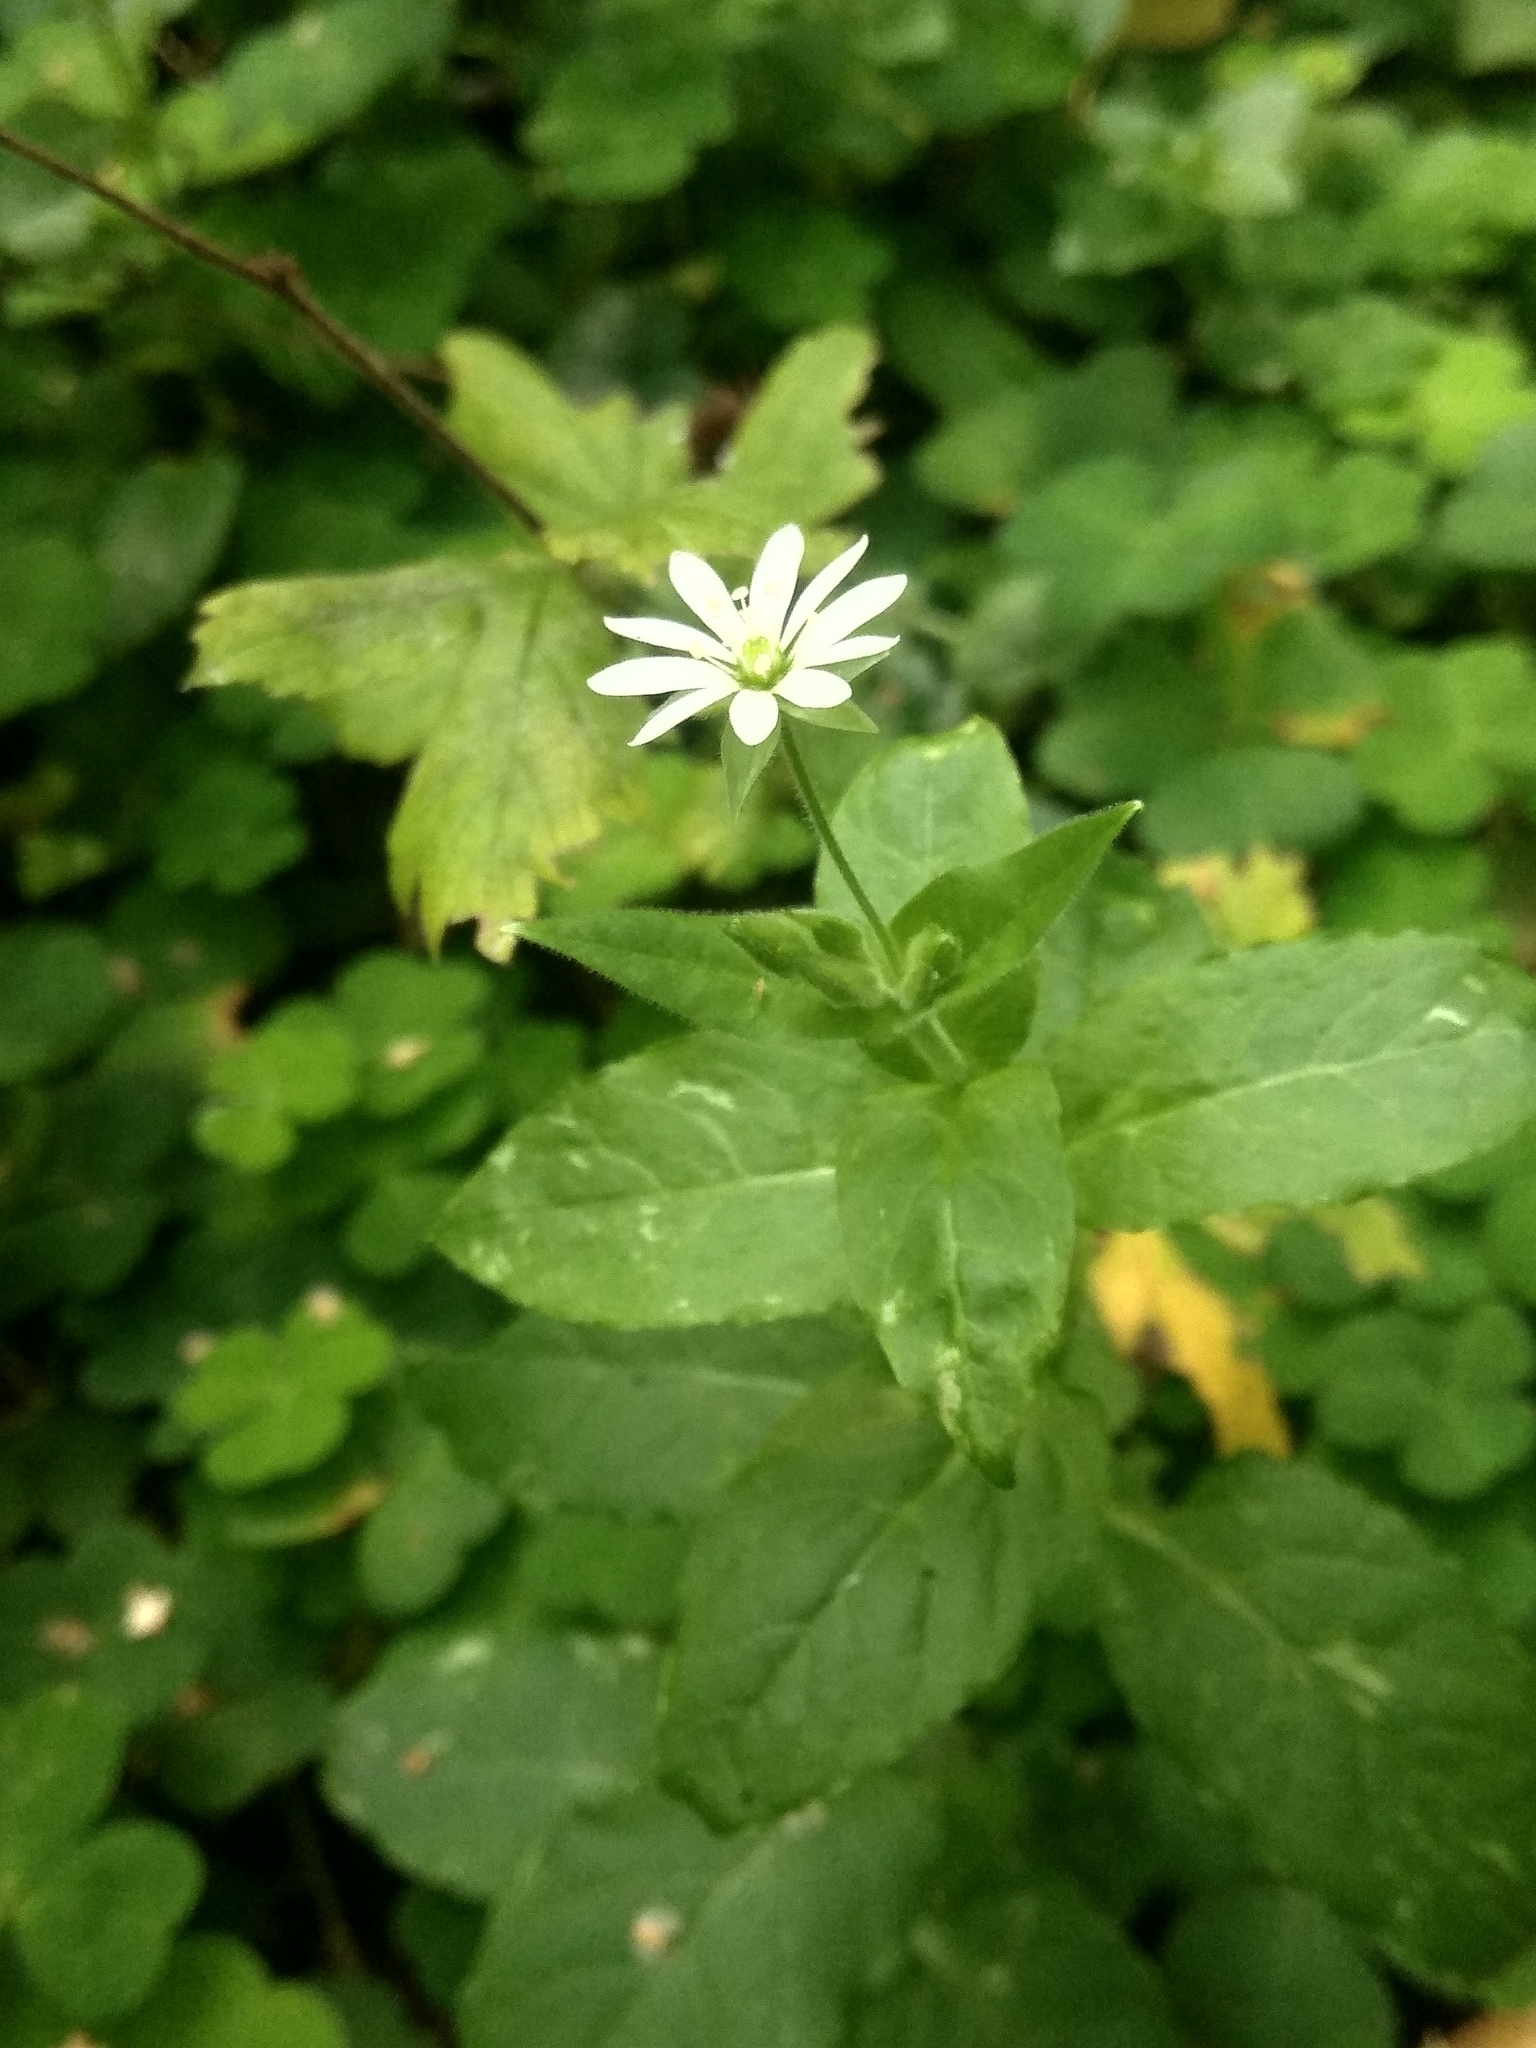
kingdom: Plantae
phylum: Tracheophyta
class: Magnoliopsida
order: Caryophyllales
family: Caryophyllaceae
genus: Stellaria
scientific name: Stellaria aquatica
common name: Water chickweed
